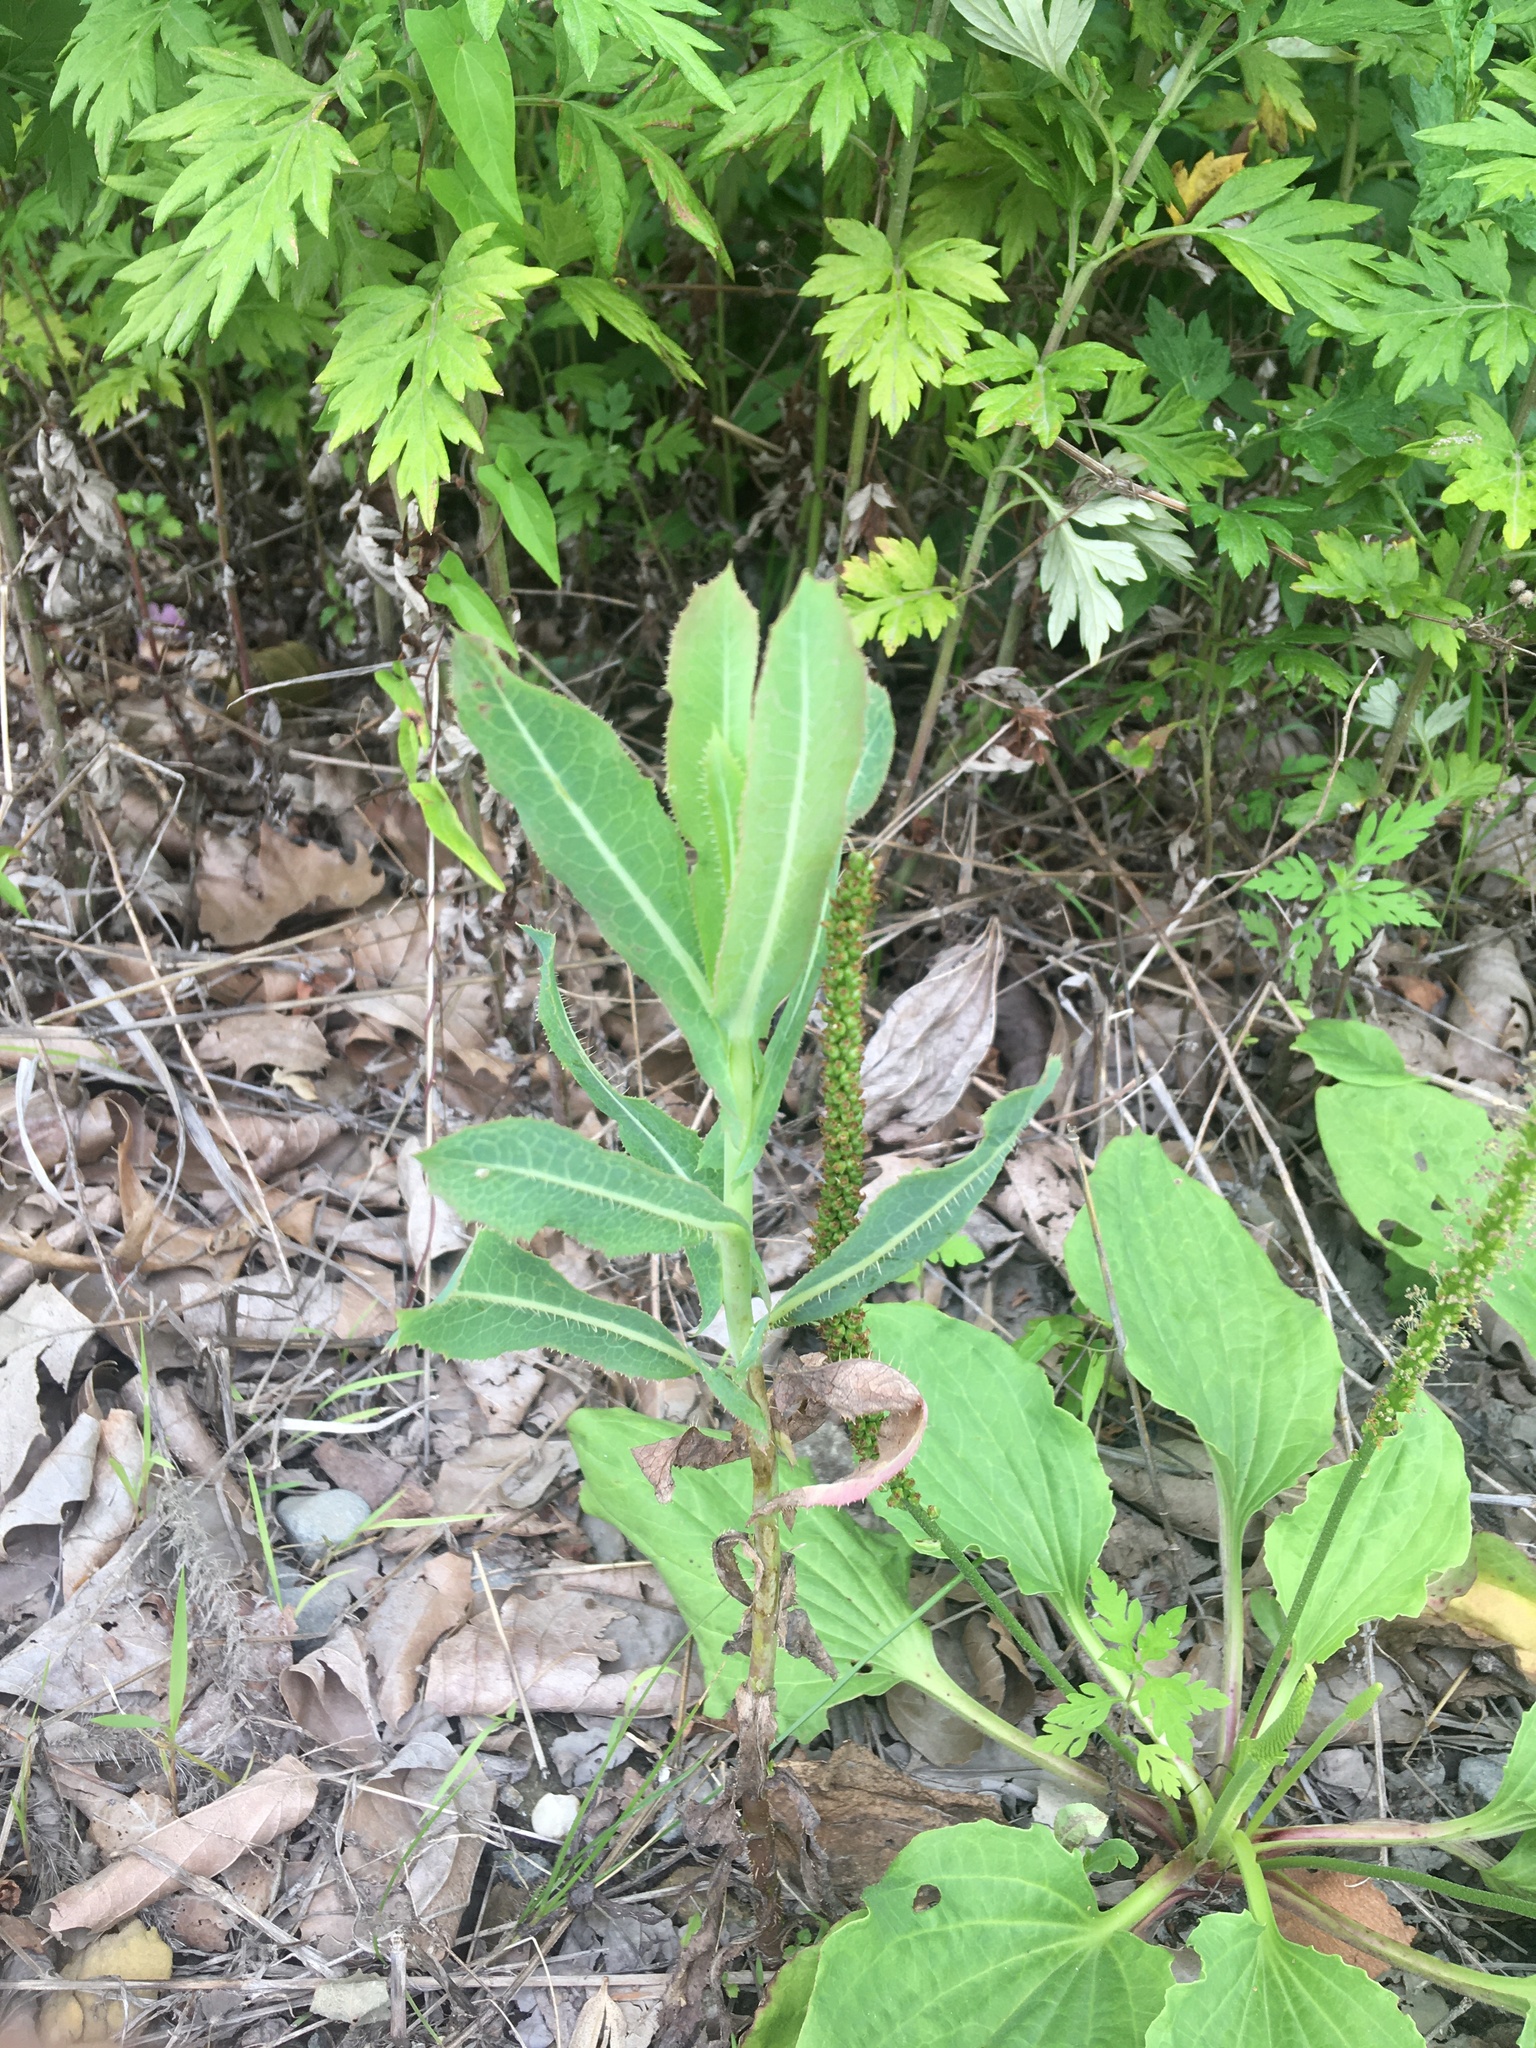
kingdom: Plantae
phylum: Tracheophyta
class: Magnoliopsida
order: Asterales
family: Asteraceae
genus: Lactuca
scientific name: Lactuca serriola
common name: Prickly lettuce
